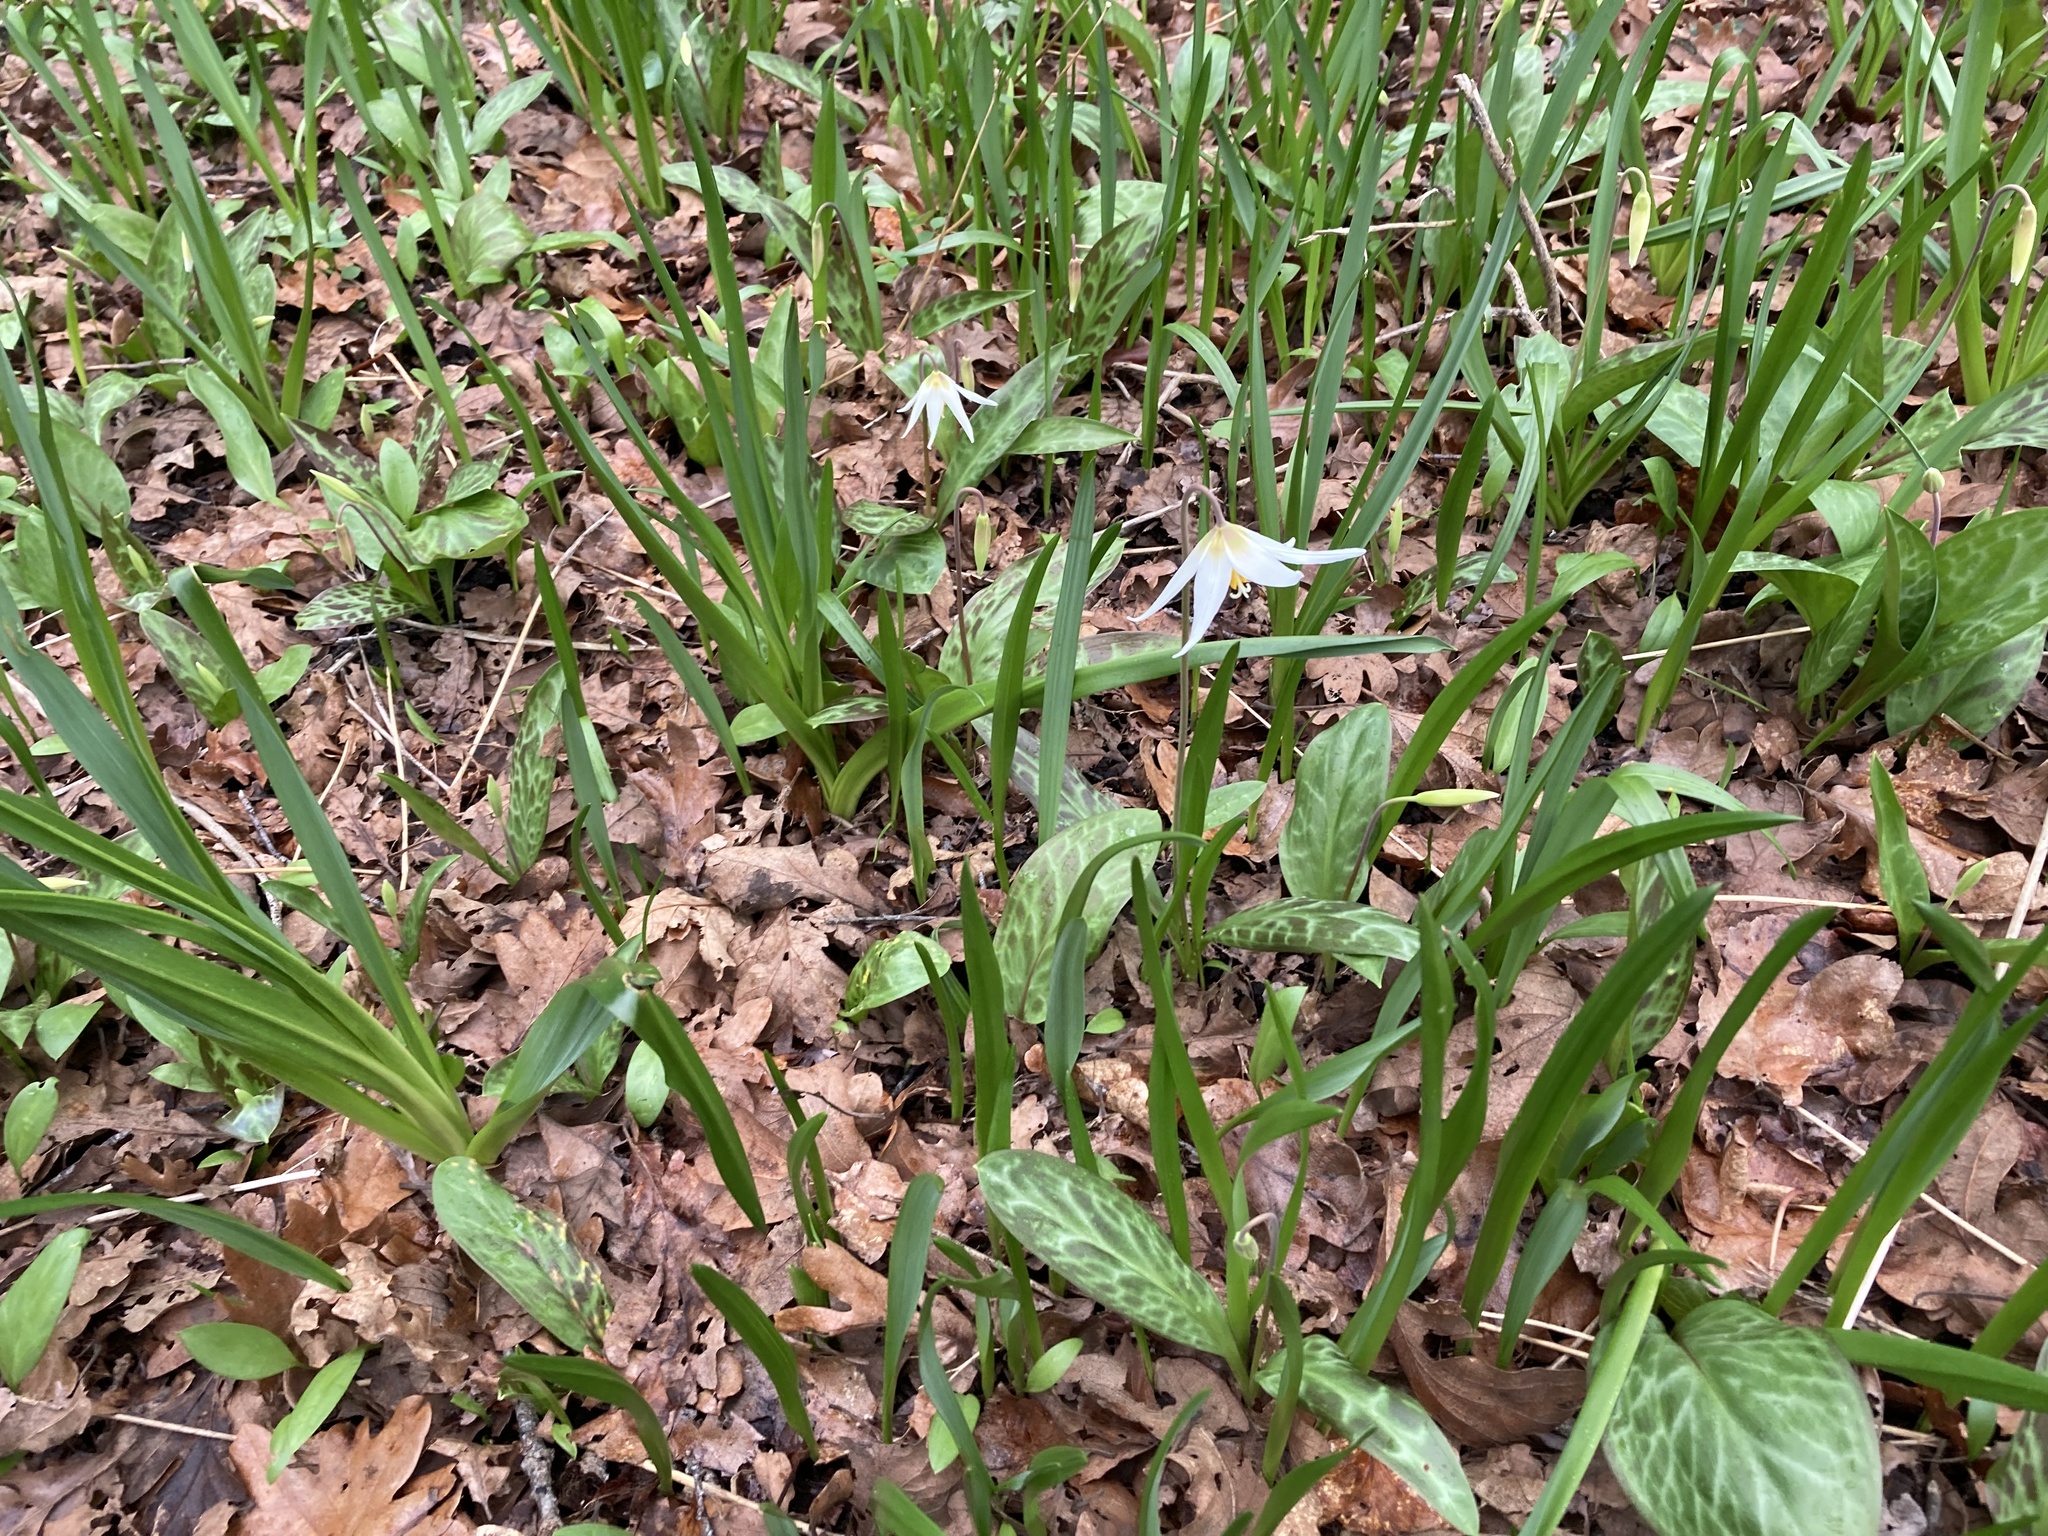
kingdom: Plantae
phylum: Tracheophyta
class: Liliopsida
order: Liliales
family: Liliaceae
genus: Erythronium
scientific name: Erythronium oregonum
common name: Giant adder's-tongue
